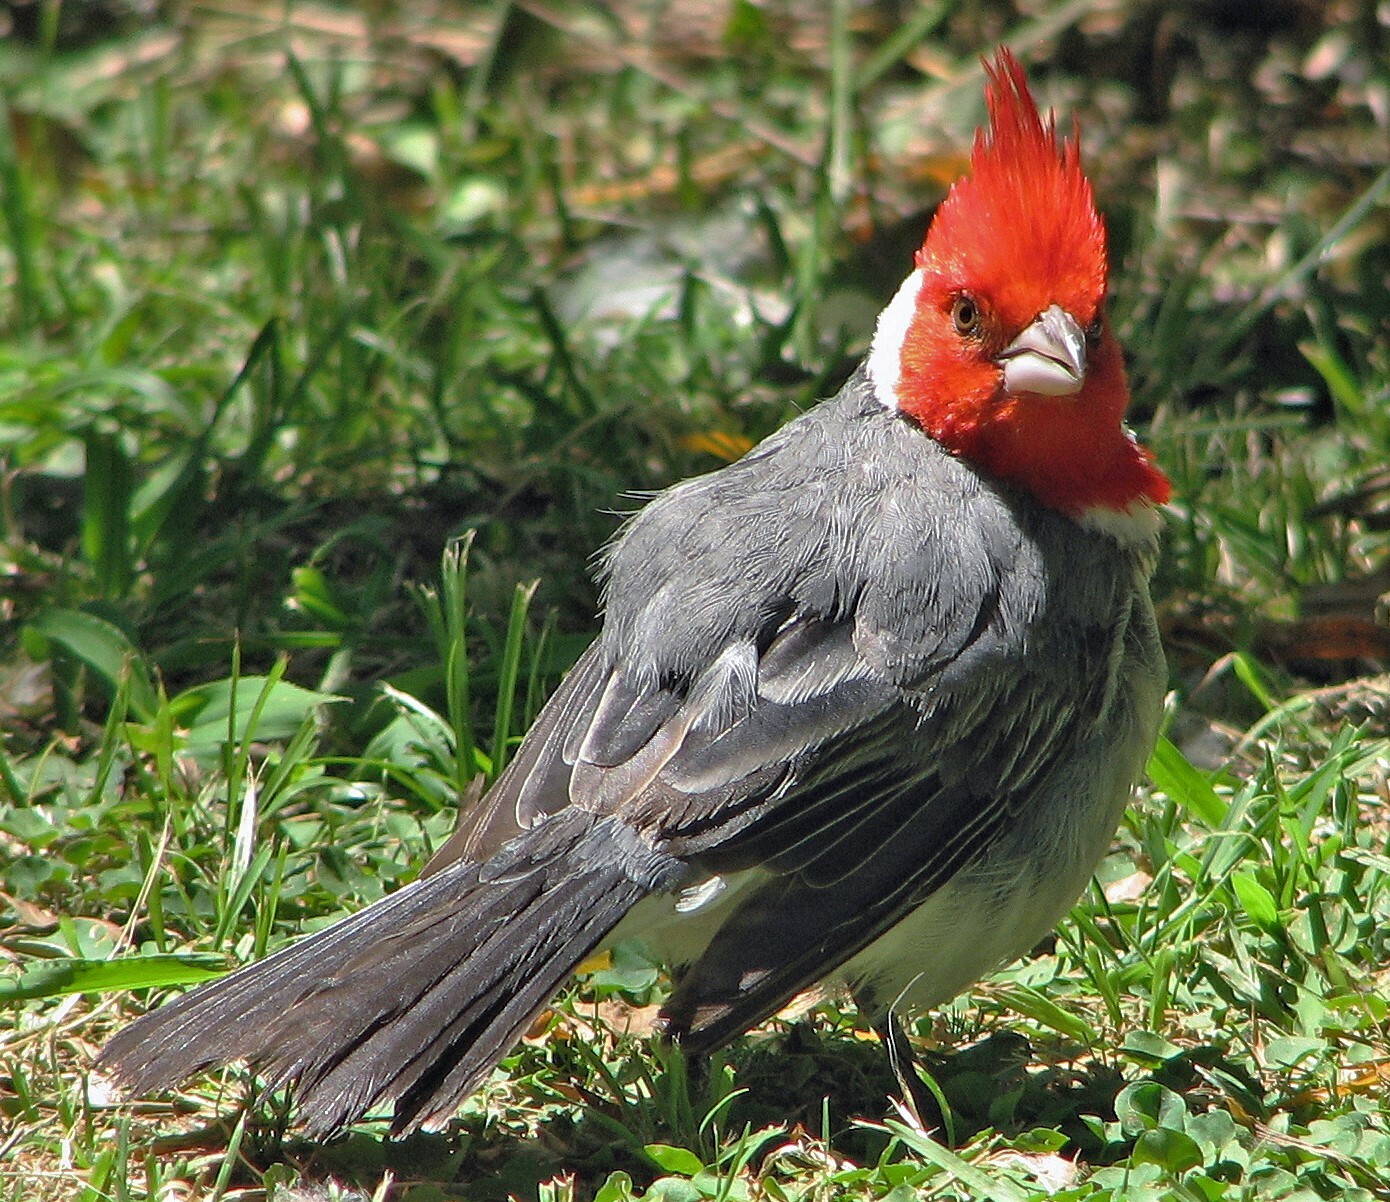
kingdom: Animalia
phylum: Chordata
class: Aves
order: Passeriformes
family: Thraupidae
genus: Paroaria
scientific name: Paroaria coronata
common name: Red-crested cardinal
